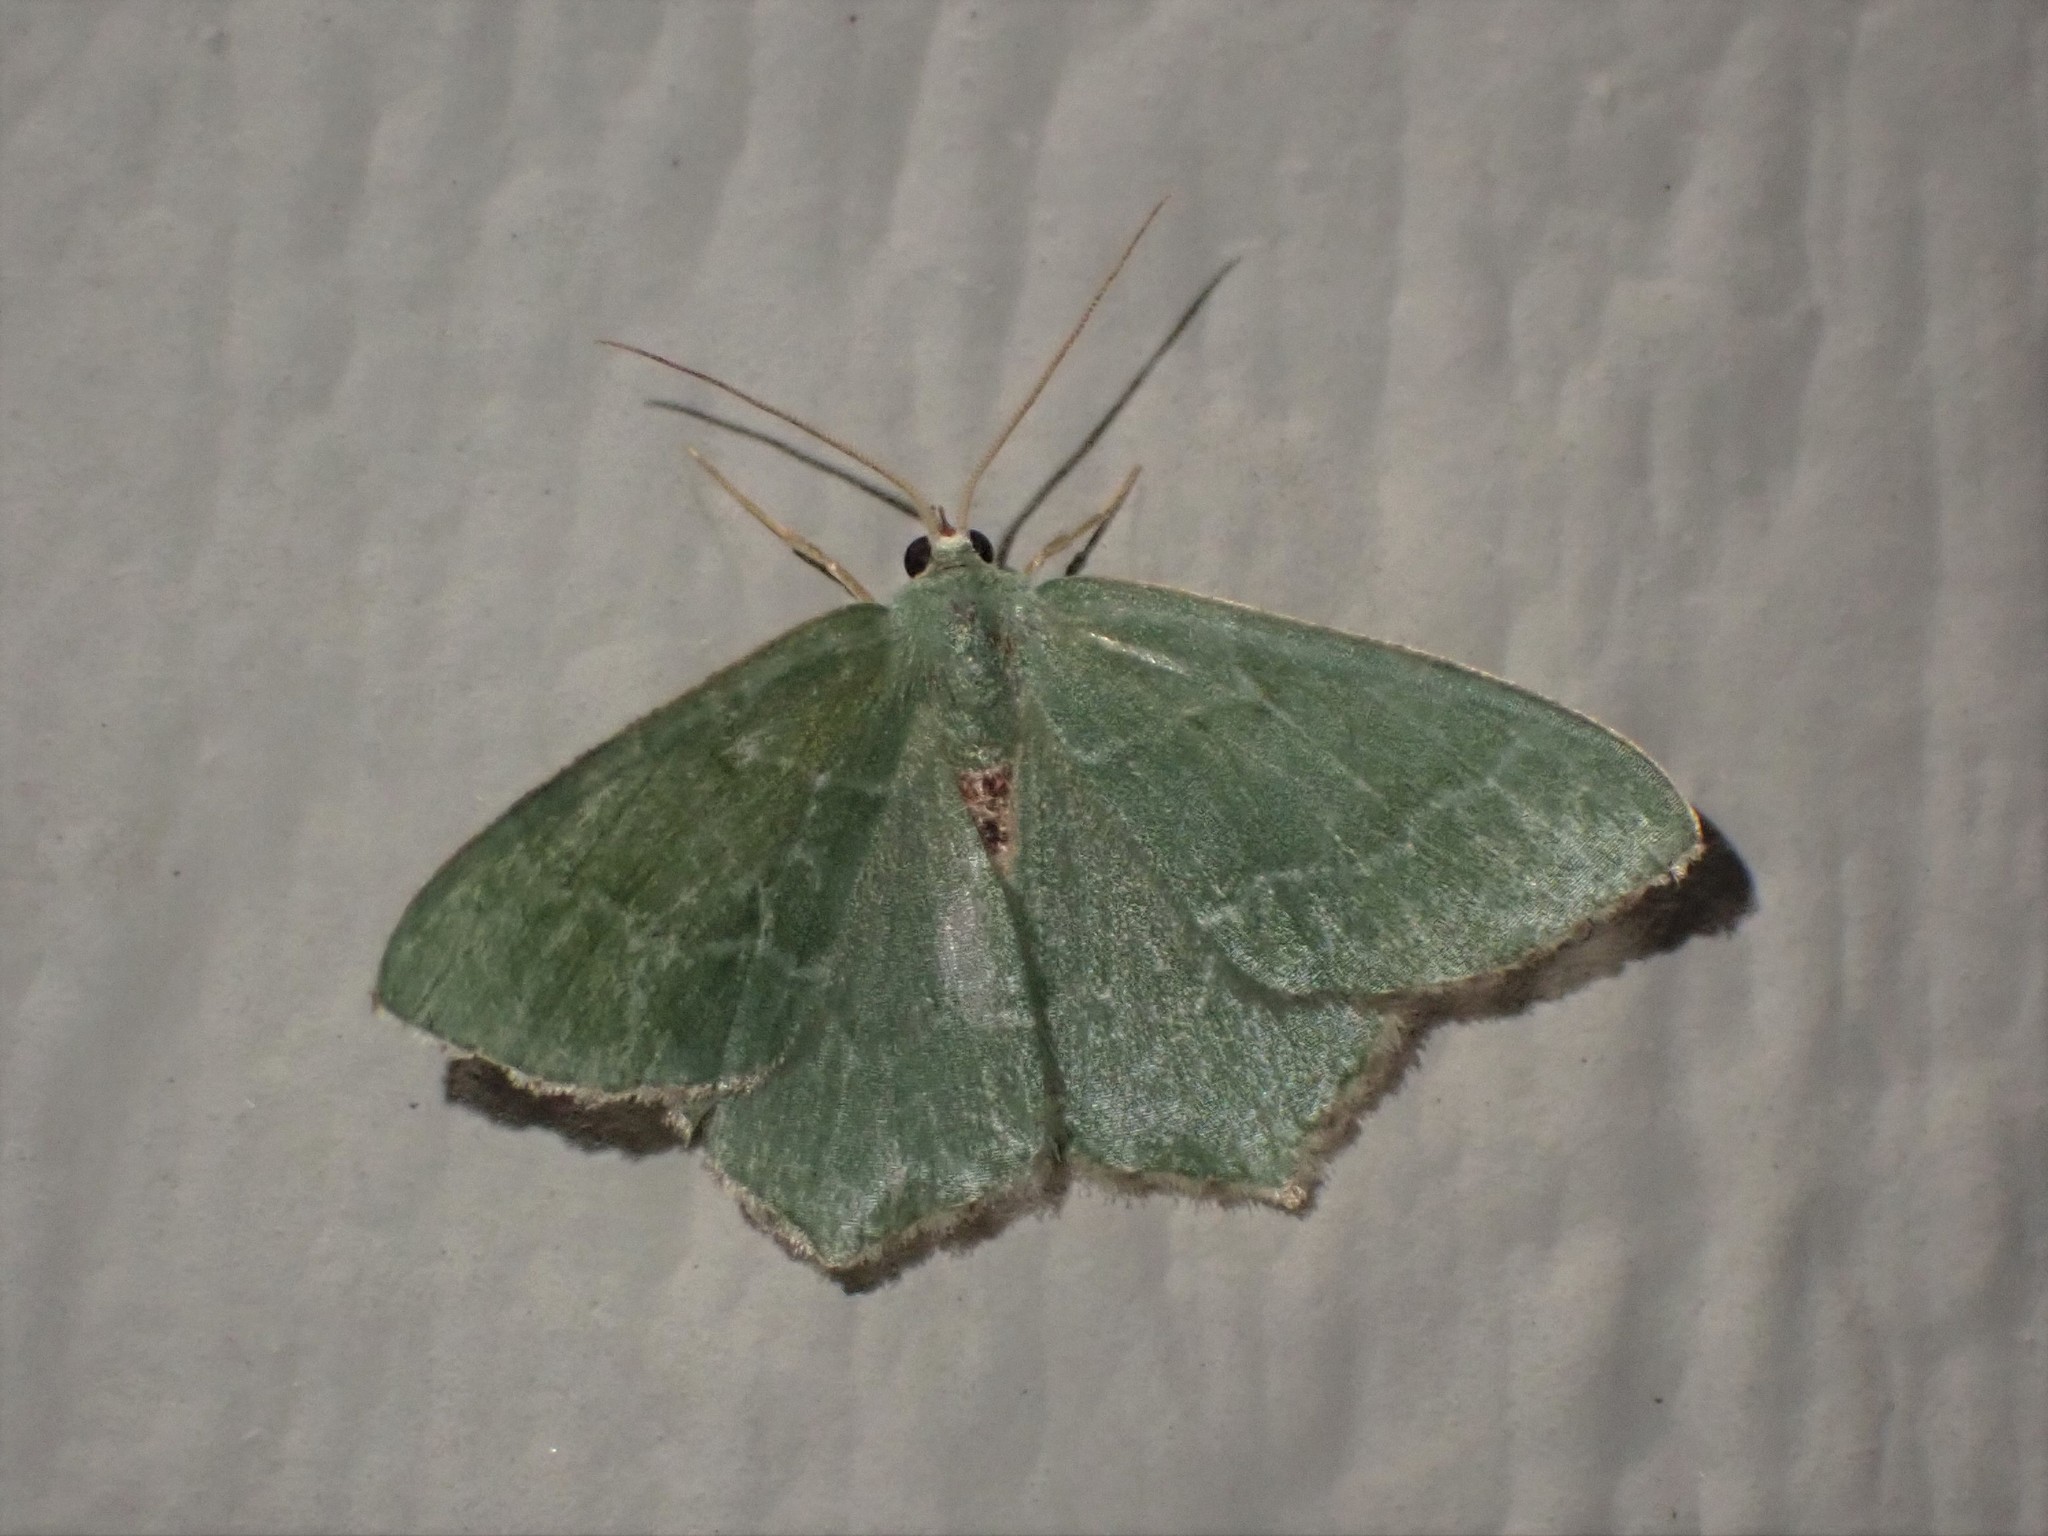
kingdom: Animalia
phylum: Arthropoda
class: Insecta
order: Lepidoptera
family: Geometridae
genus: Hemithea
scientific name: Hemithea aestivaria
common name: Common emerald
